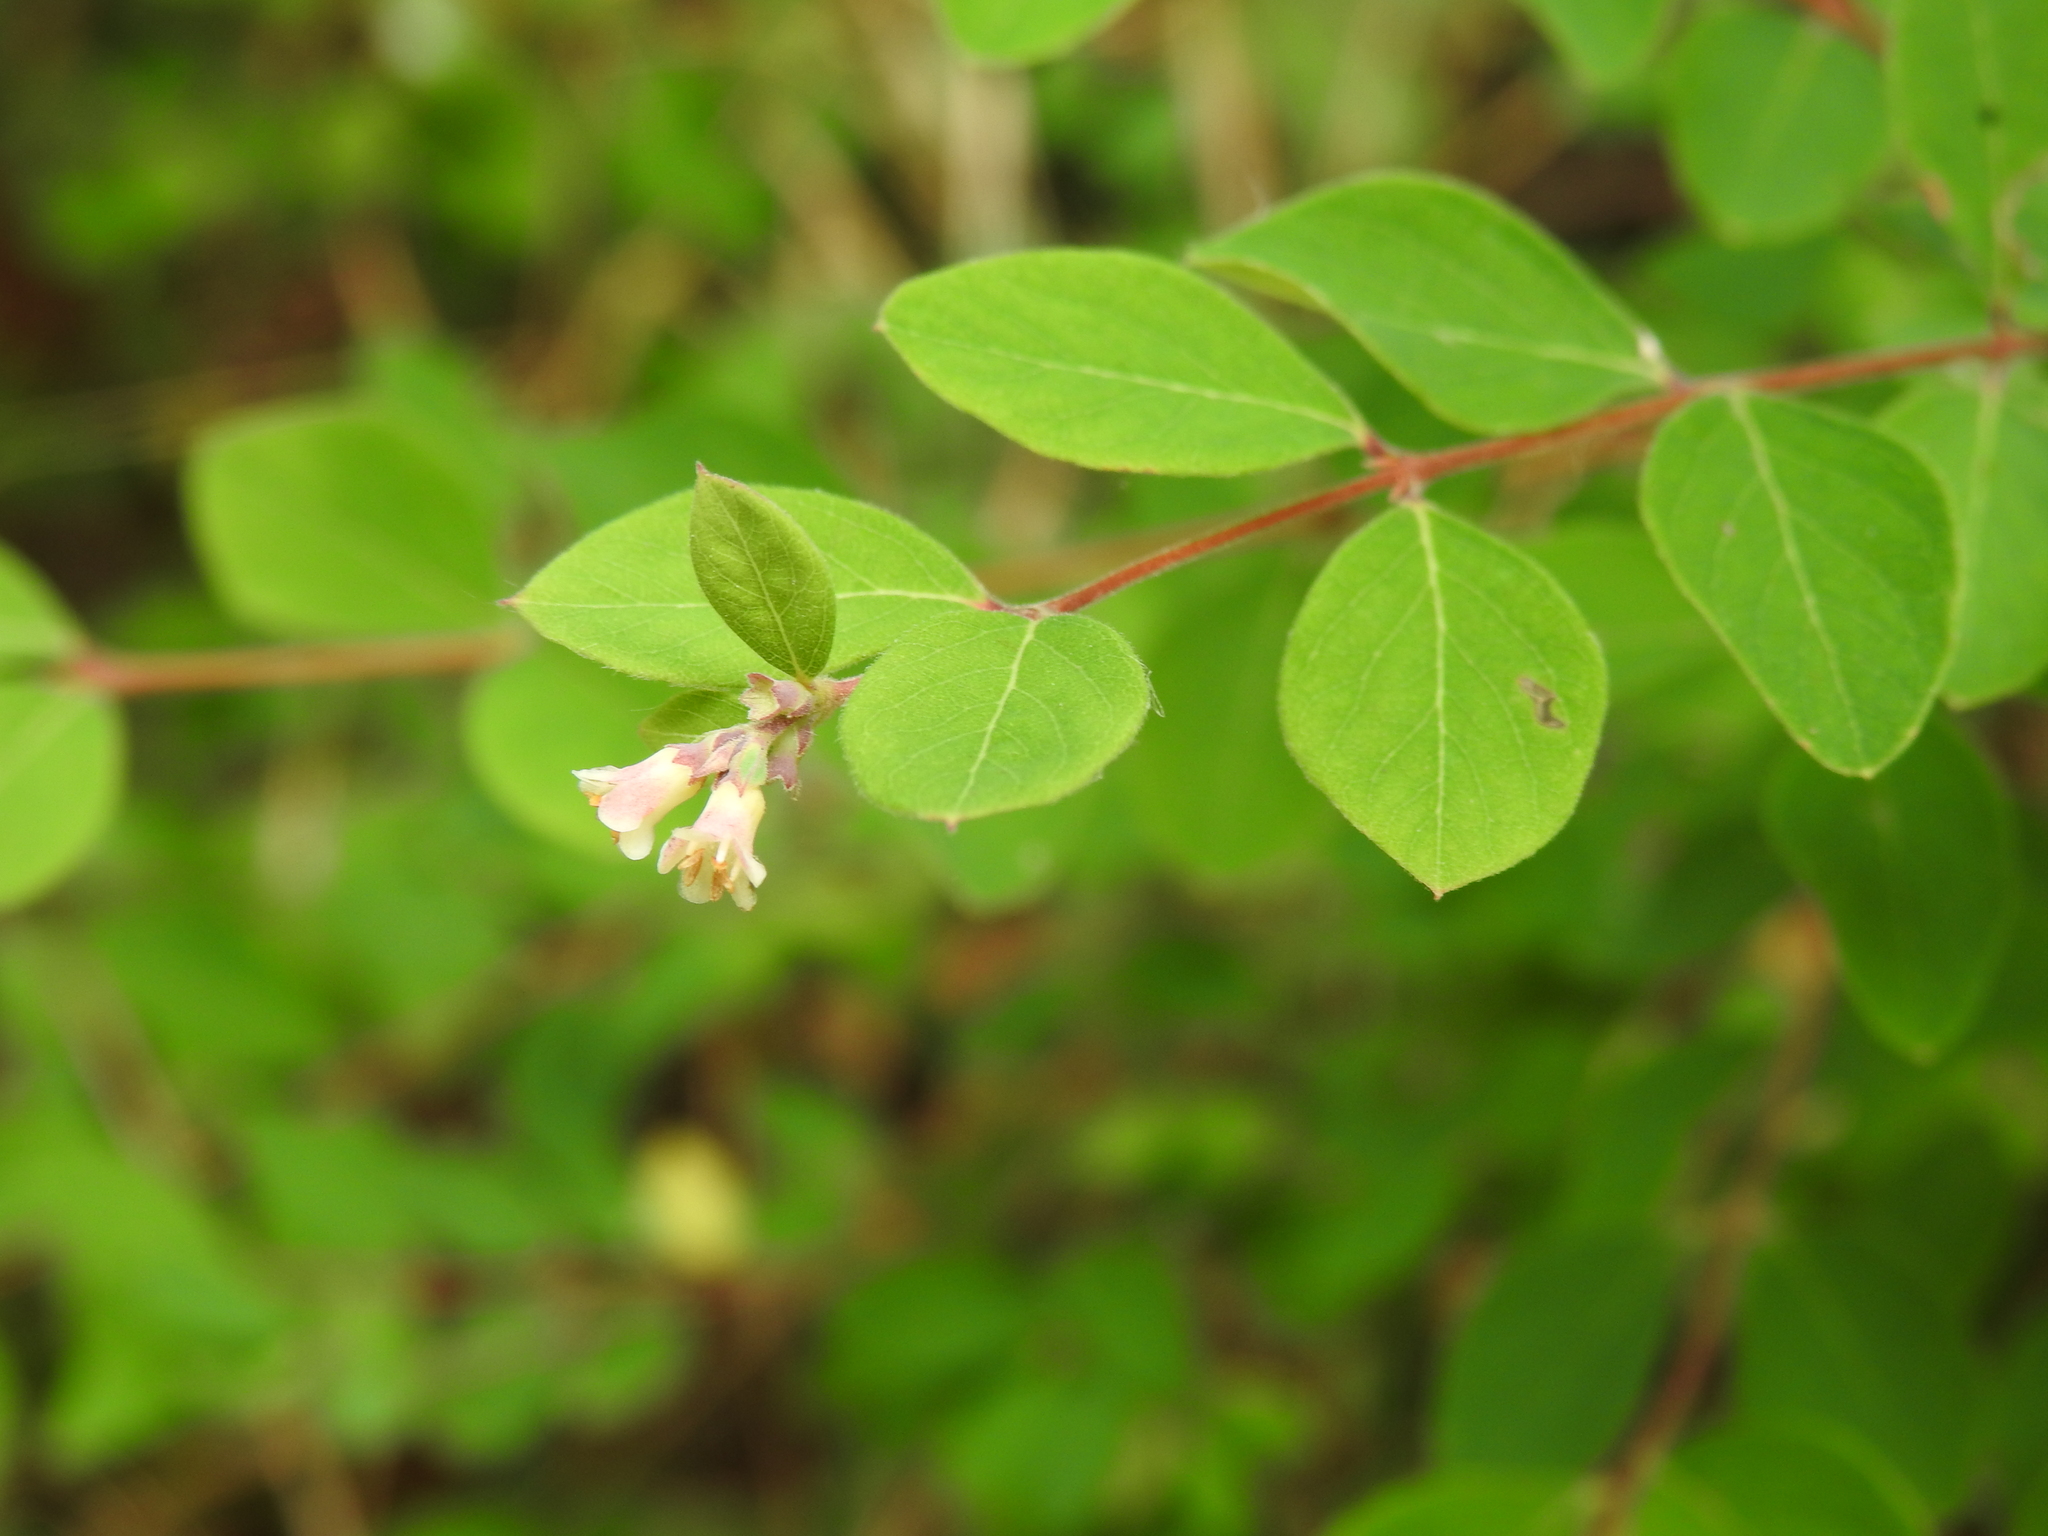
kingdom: Plantae
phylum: Tracheophyta
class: Magnoliopsida
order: Dipsacales
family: Caprifoliaceae
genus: Symphoricarpos
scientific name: Symphoricarpos albus
